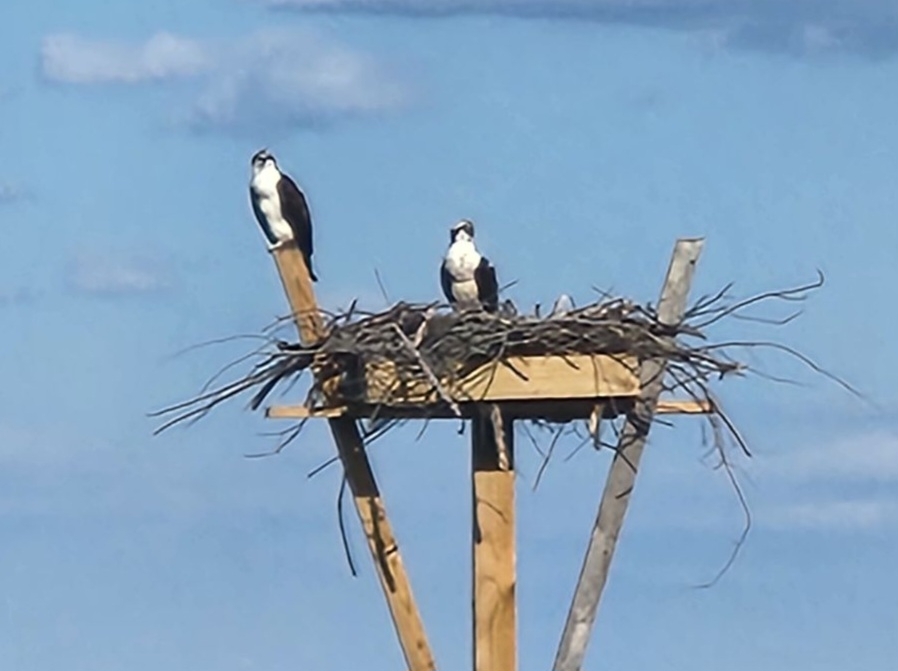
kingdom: Animalia
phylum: Chordata
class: Aves
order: Accipitriformes
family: Pandionidae
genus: Pandion
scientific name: Pandion haliaetus
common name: Osprey
